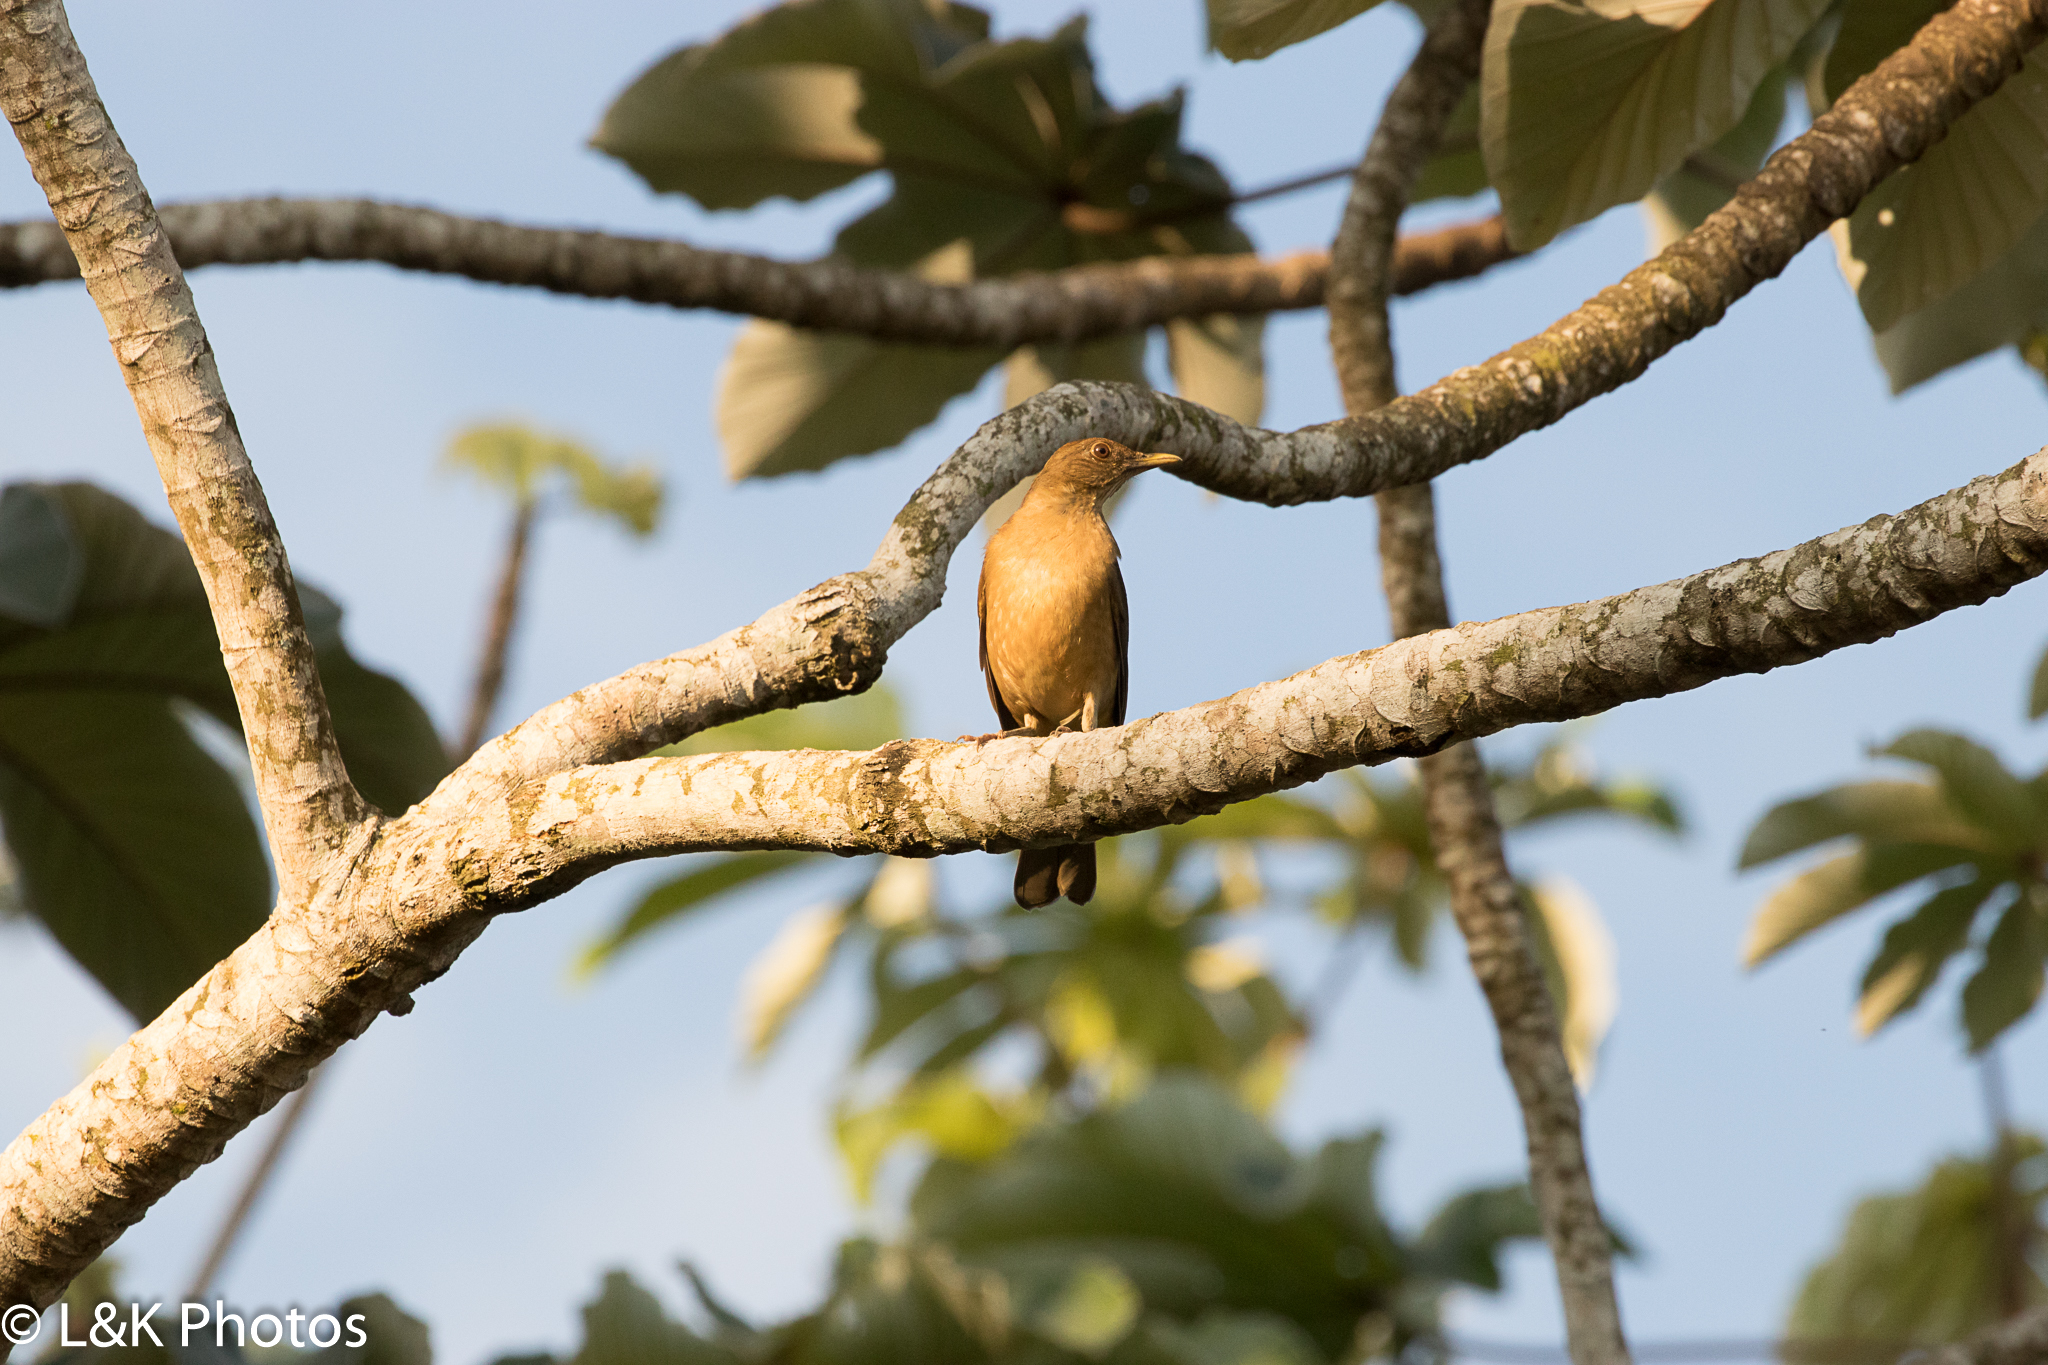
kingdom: Animalia
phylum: Chordata
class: Aves
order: Passeriformes
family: Turdidae
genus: Turdus
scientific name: Turdus grayi
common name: Clay-colored thrush
